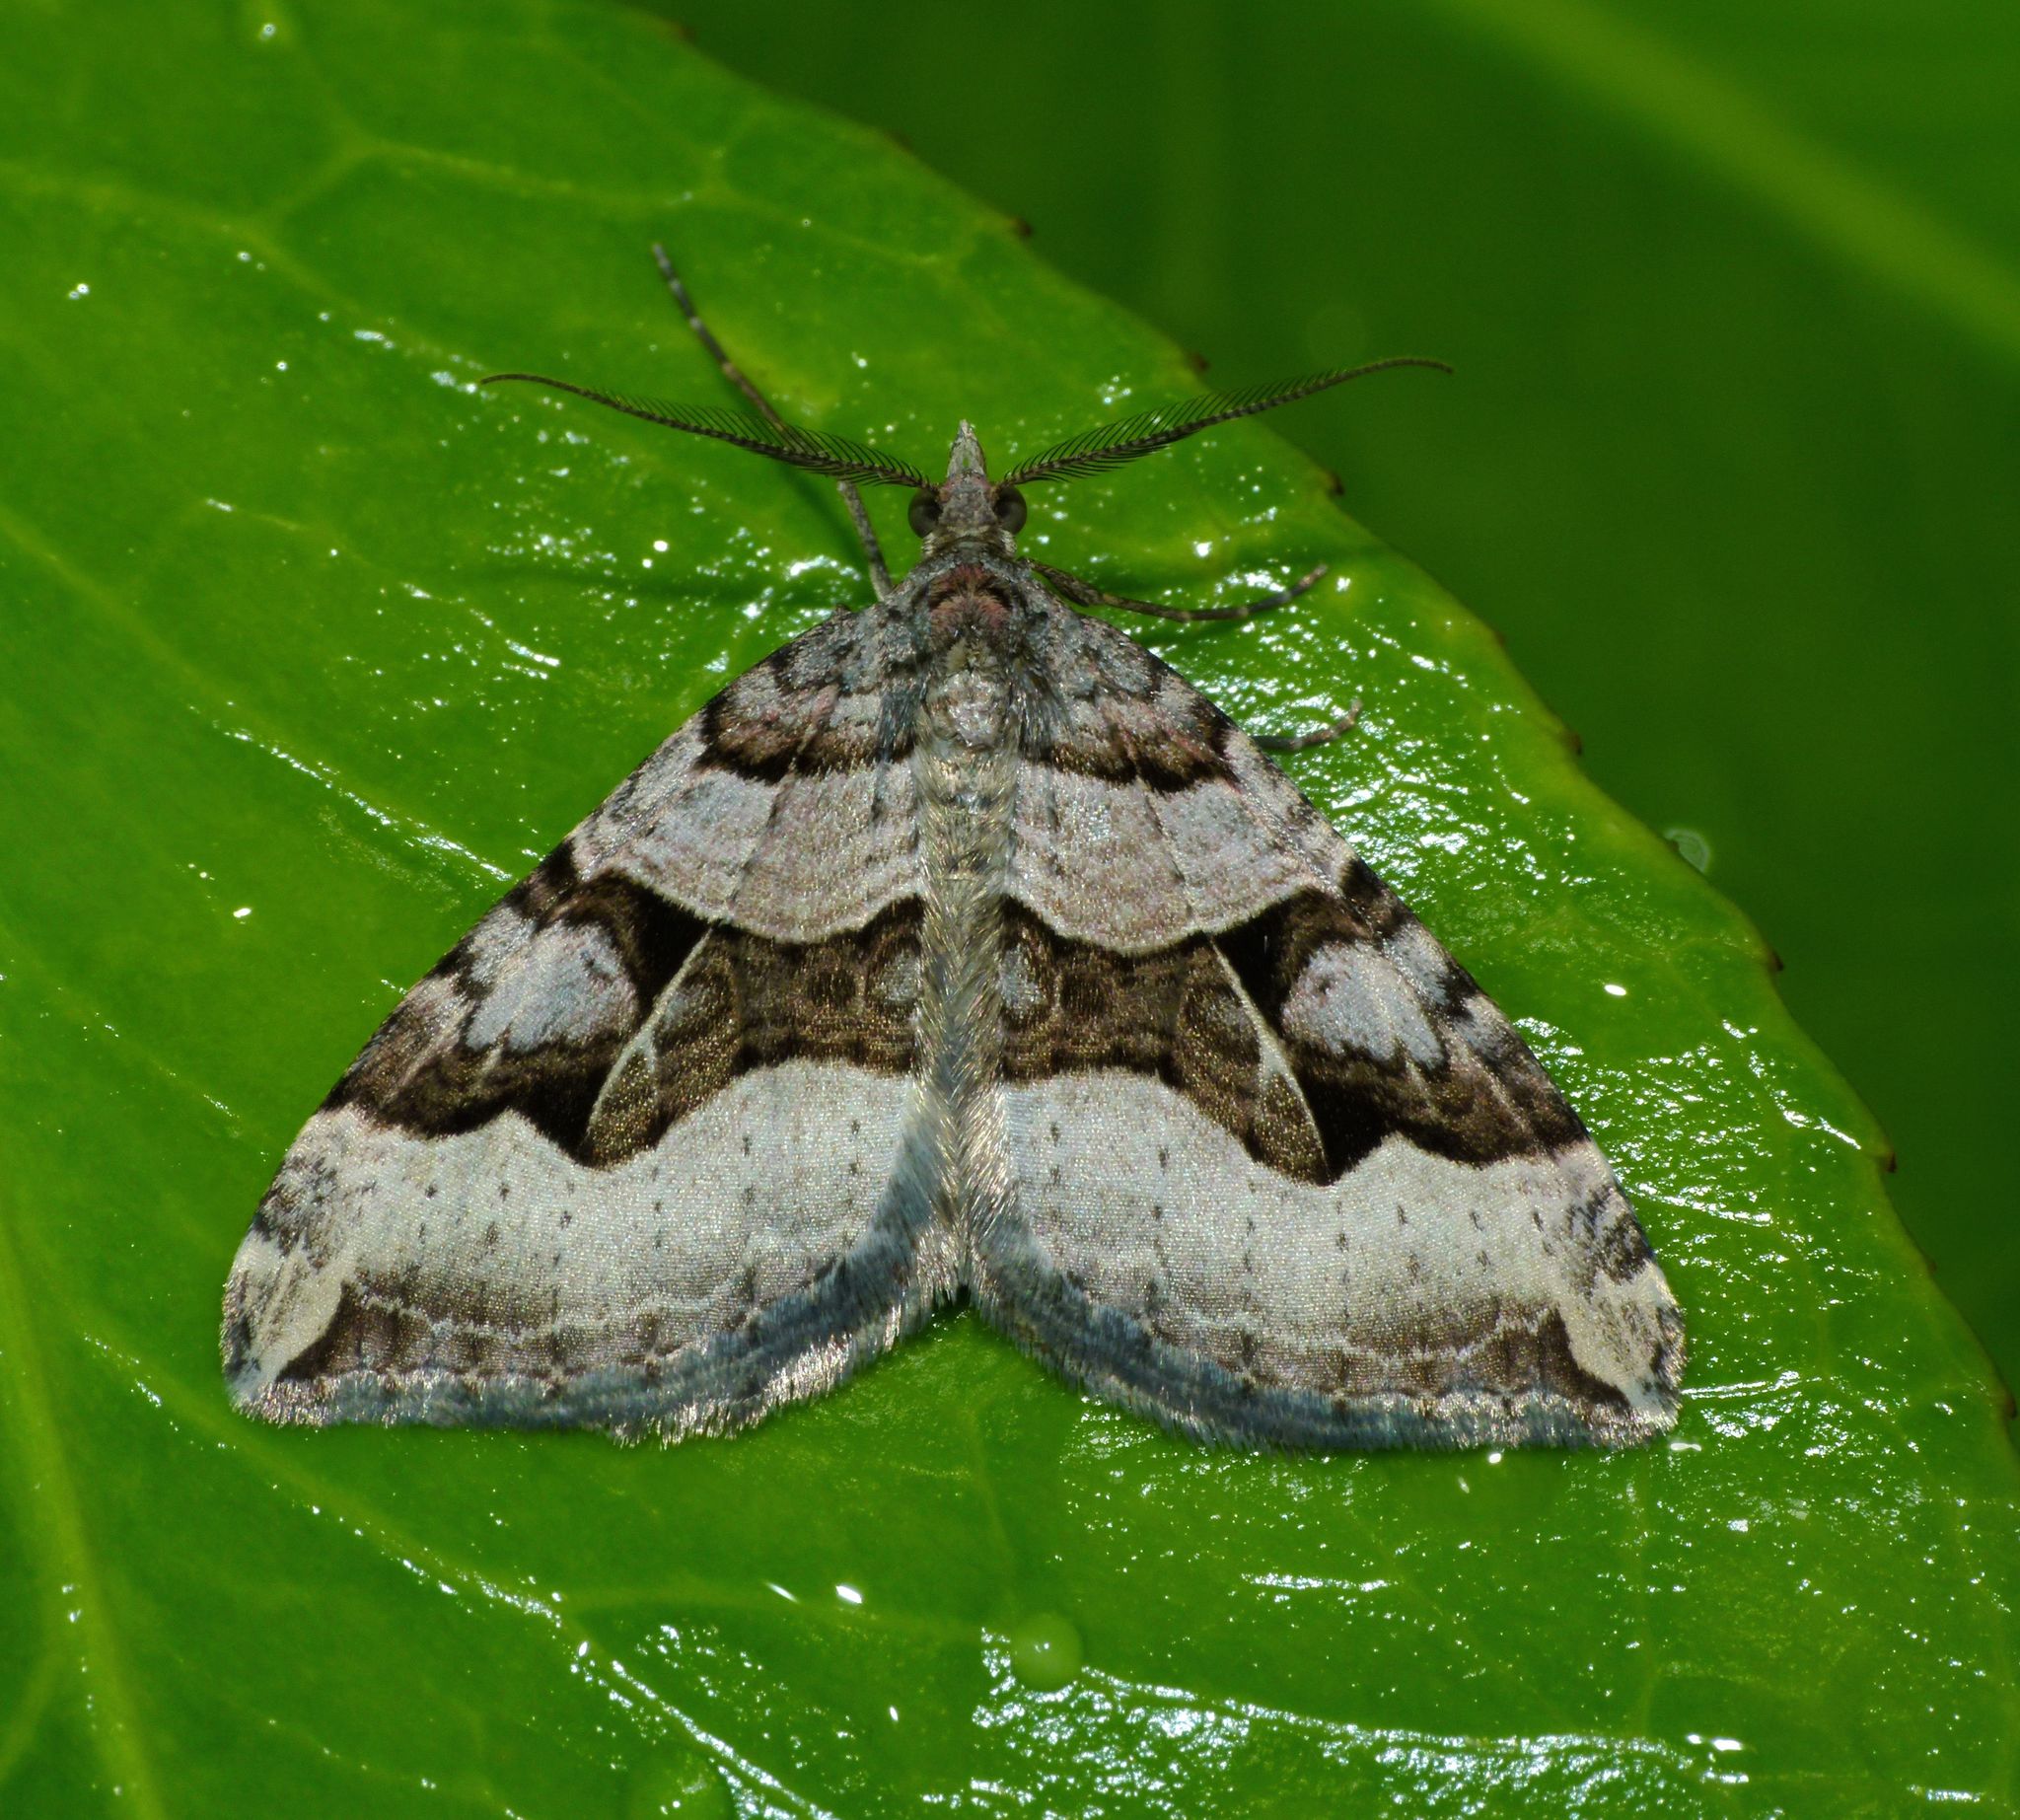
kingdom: Animalia
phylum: Arthropoda
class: Insecta
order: Lepidoptera
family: Geometridae
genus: Xanthorhoe
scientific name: Xanthorhoe semifissata
